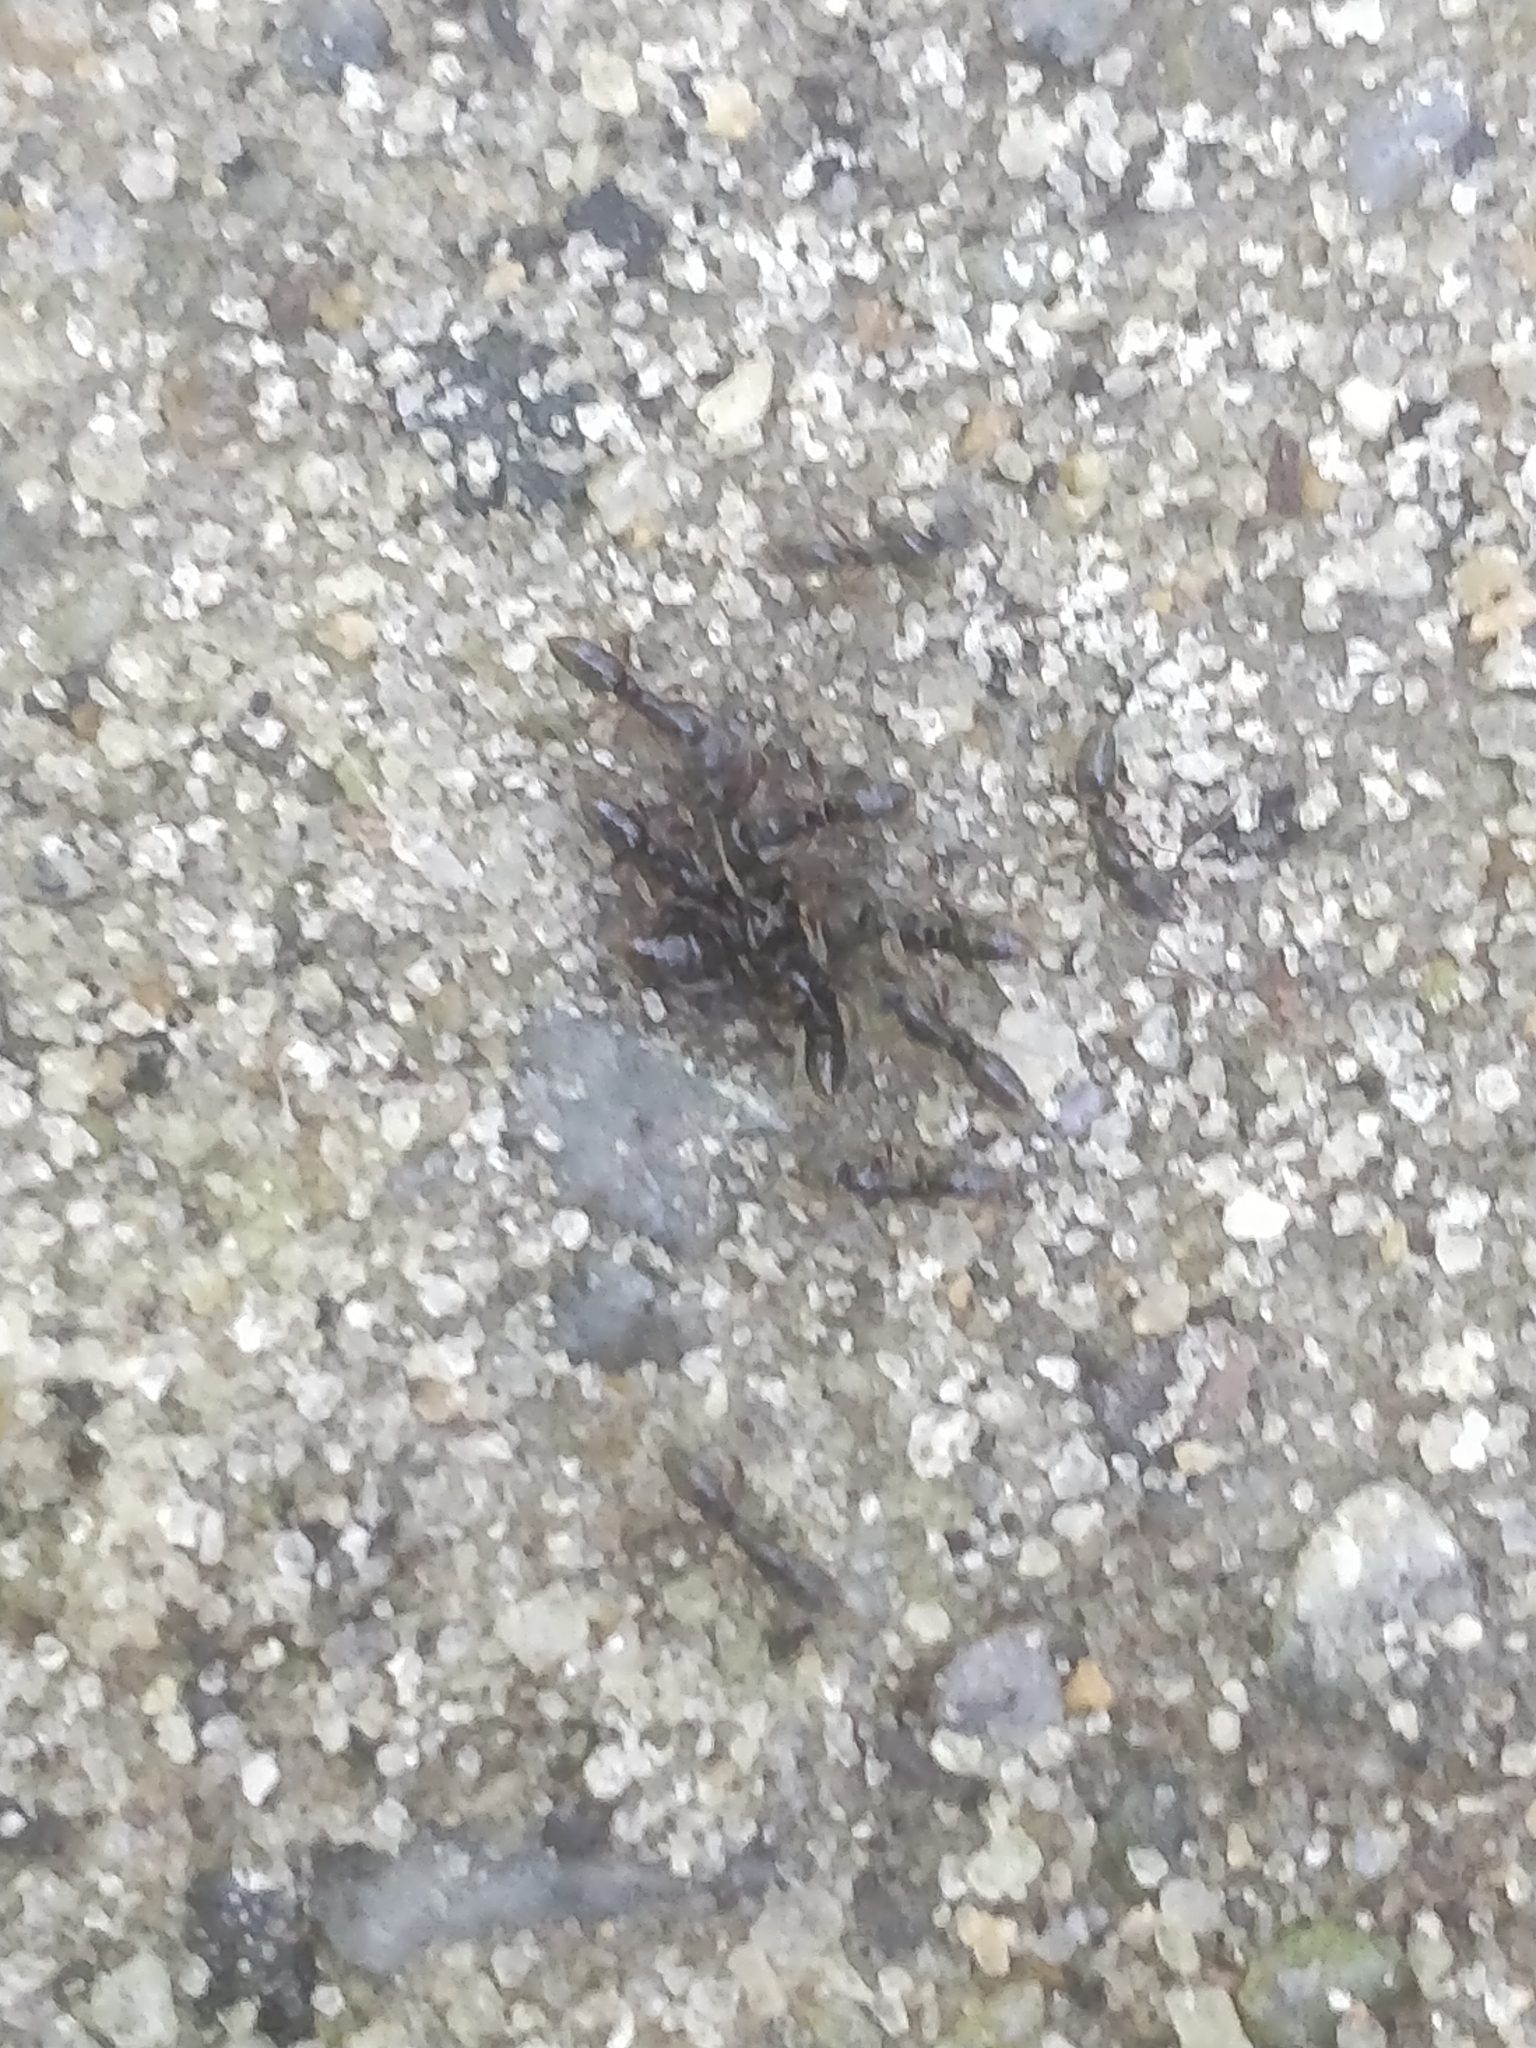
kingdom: Animalia
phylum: Arthropoda
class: Insecta
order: Hymenoptera
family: Formicidae
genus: Pachycondyla
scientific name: Pachycondyla chinensis
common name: Asian needle ant
